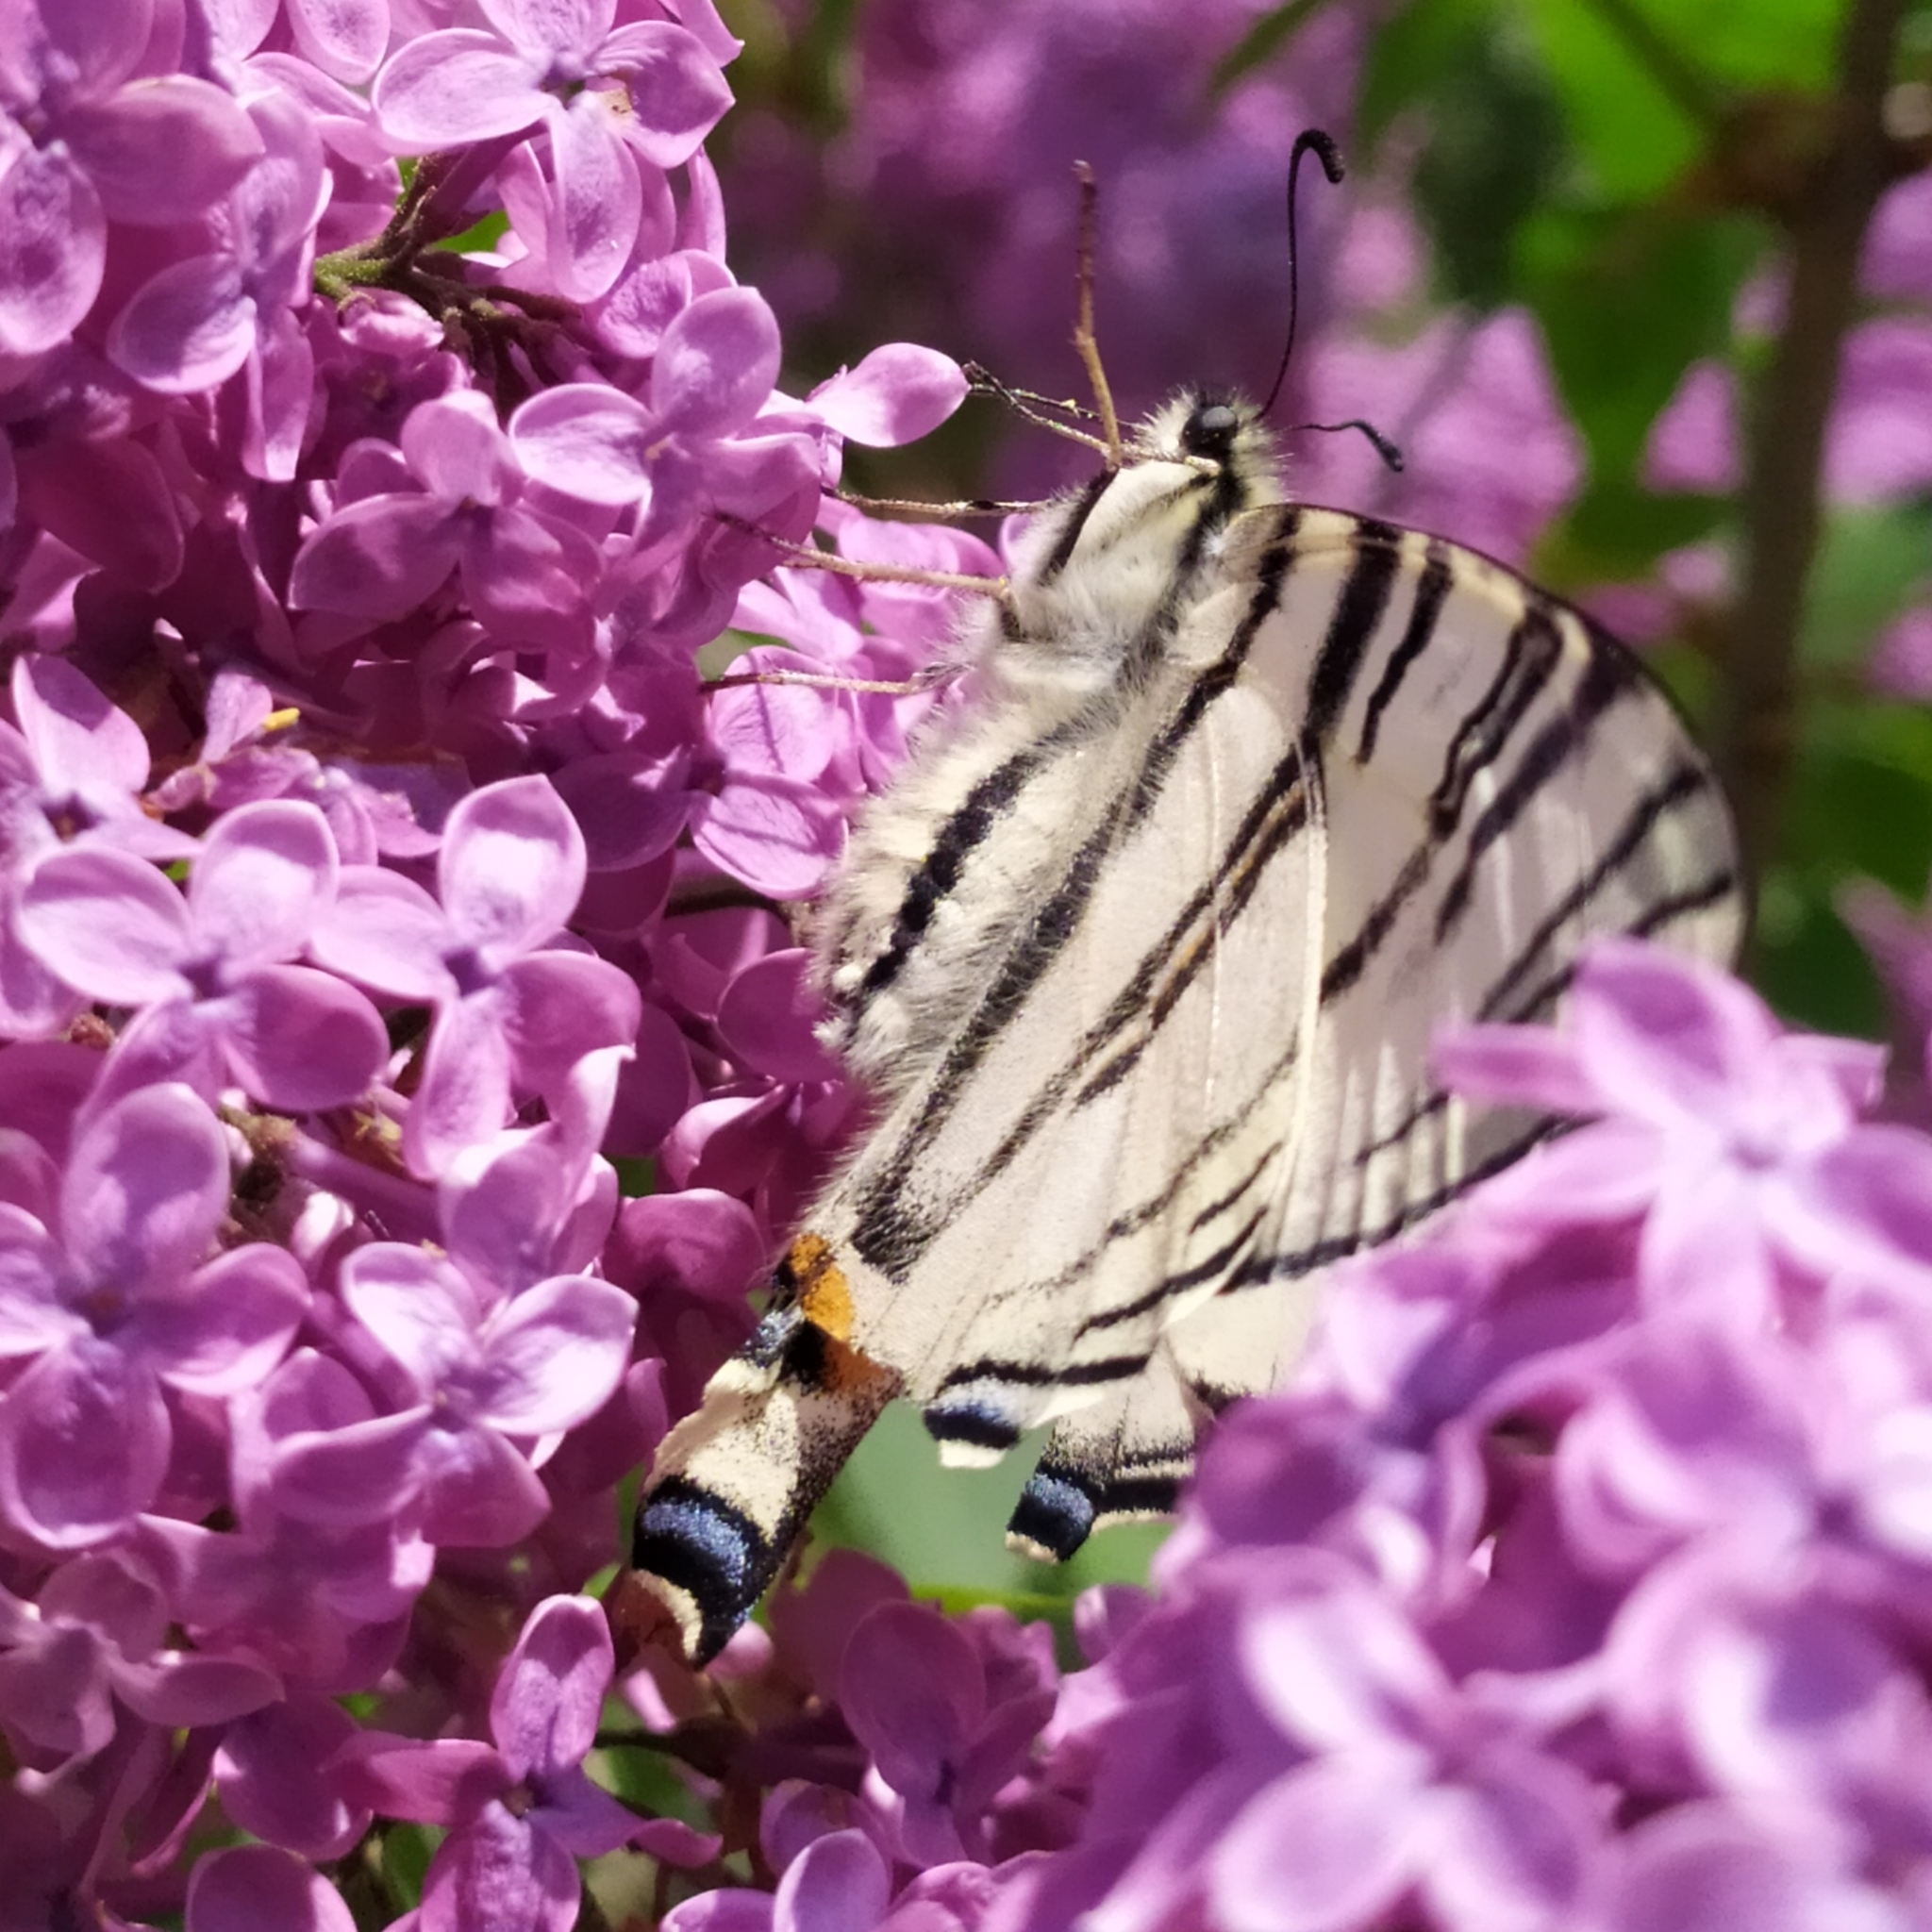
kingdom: Animalia
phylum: Arthropoda
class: Insecta
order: Lepidoptera
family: Papilionidae
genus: Iphiclides
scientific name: Iphiclides podalirius
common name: Scarce swallowtail
